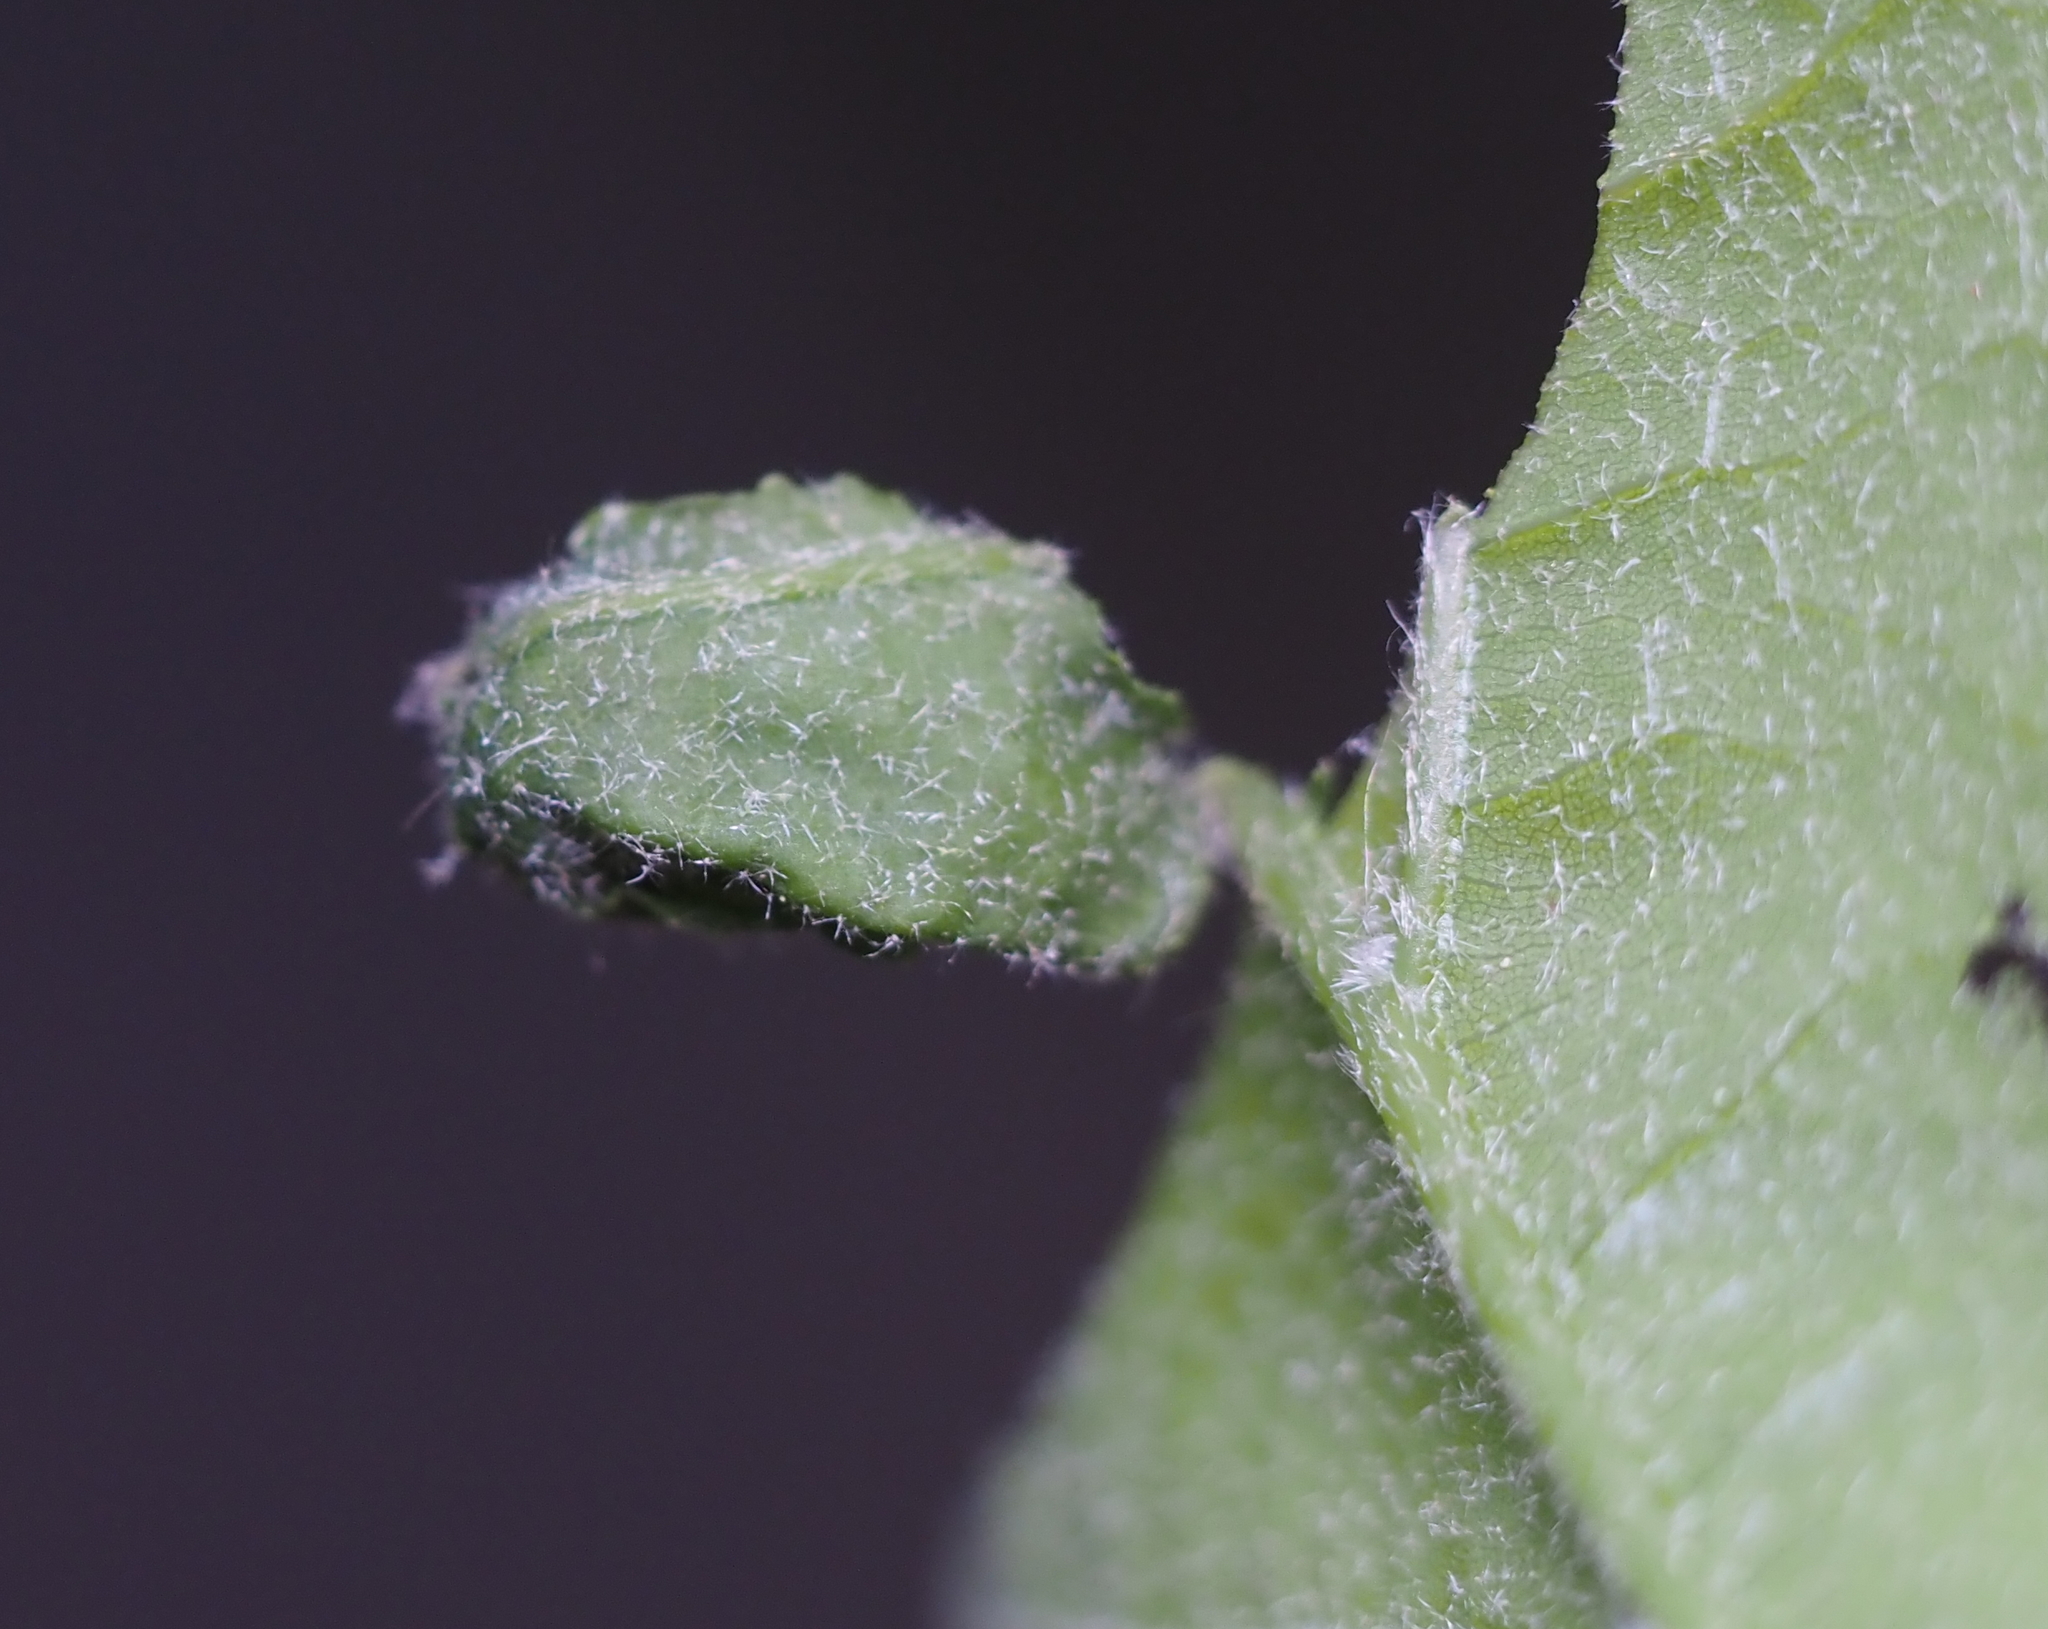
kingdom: Animalia
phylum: Arthropoda
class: Insecta
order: Coleoptera
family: Attelabidae
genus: Attelabus
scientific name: Attelabus bipustulatus
